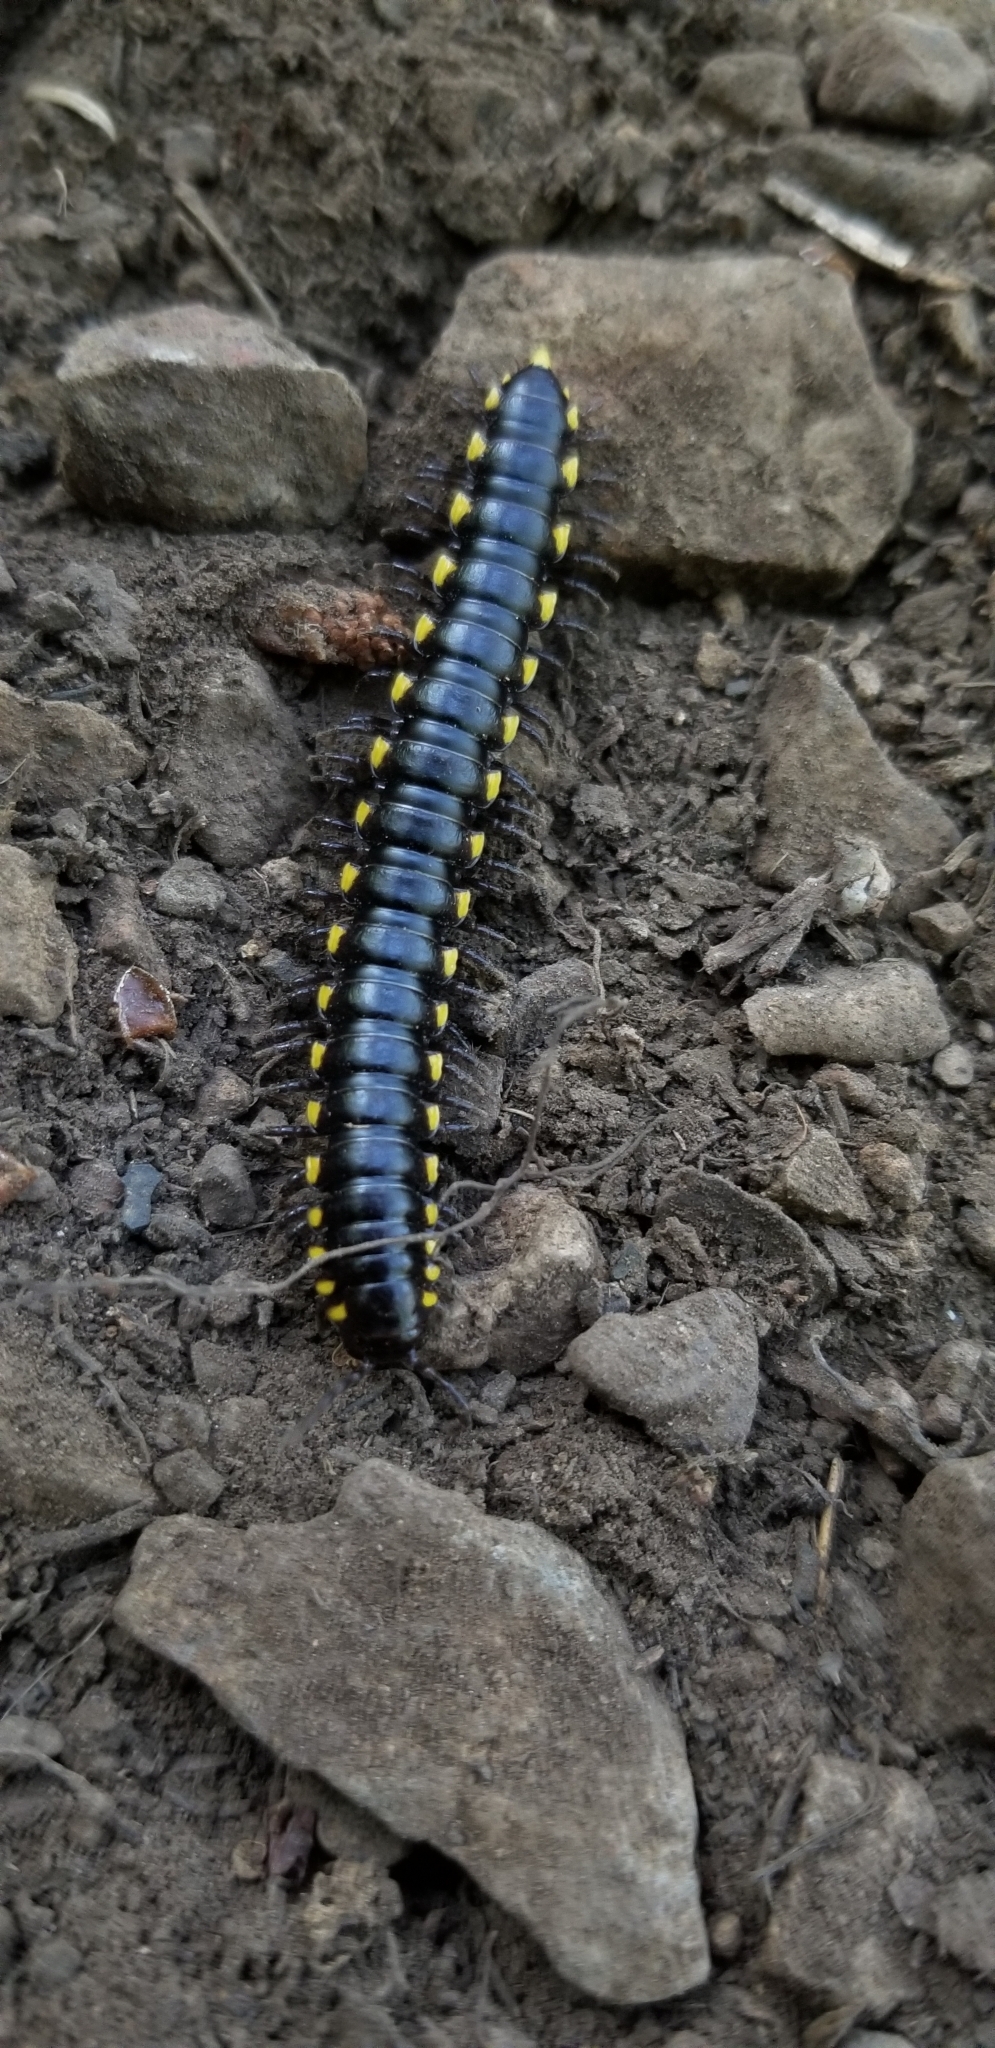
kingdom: Animalia
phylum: Arthropoda
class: Diplopoda
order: Polydesmida
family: Xystodesmidae
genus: Harpaphe
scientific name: Harpaphe haydeniana
